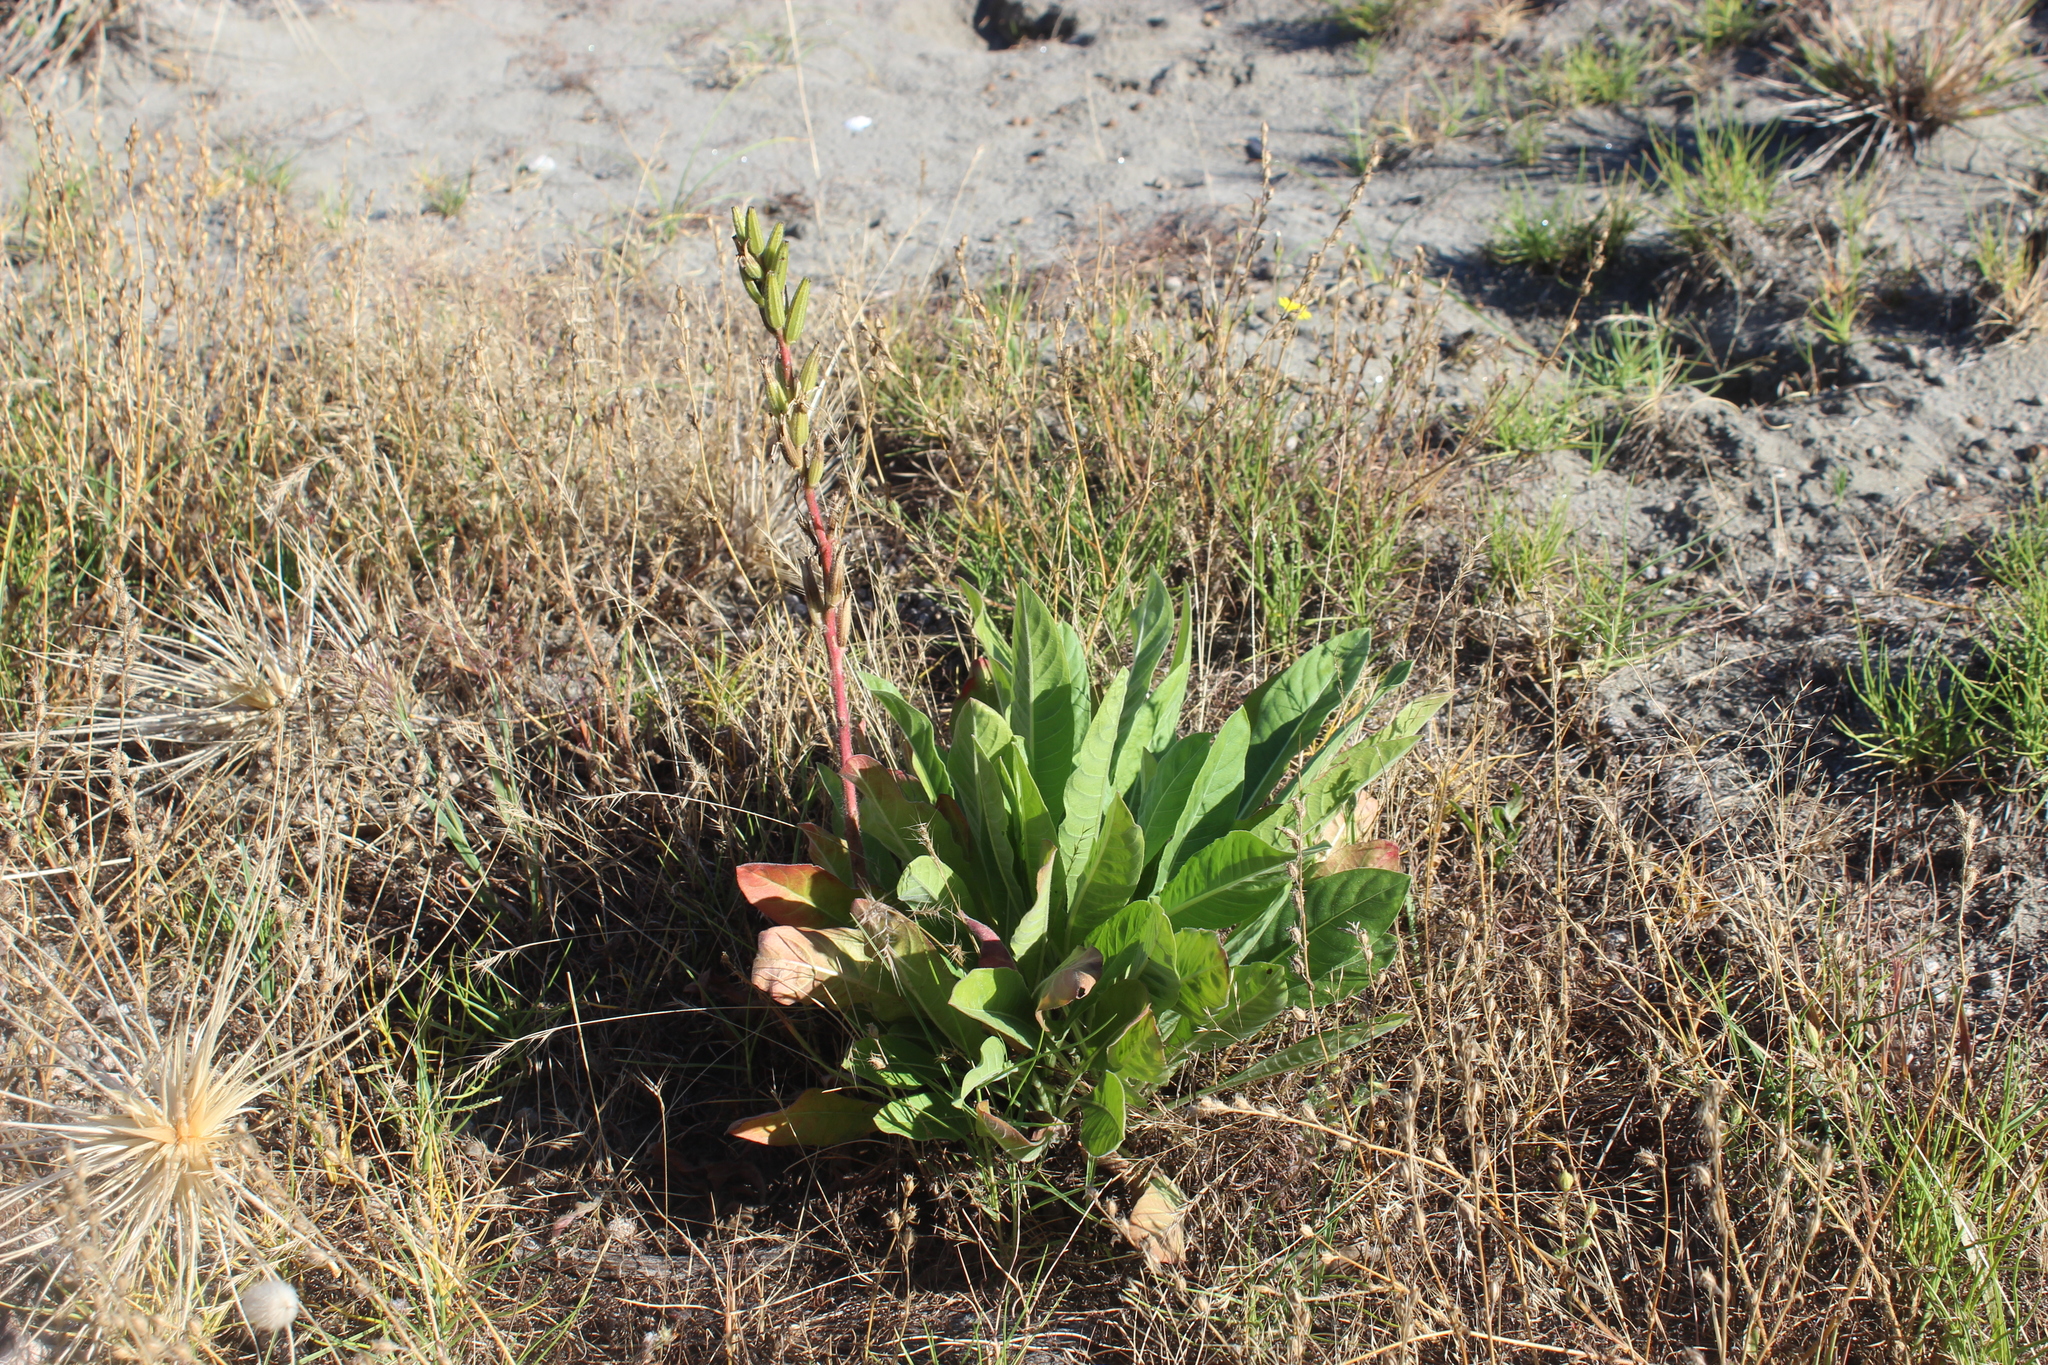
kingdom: Plantae
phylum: Tracheophyta
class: Magnoliopsida
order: Myrtales
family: Onagraceae
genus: Oenothera
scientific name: Oenothera stricta
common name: Fragrant evening-primrose
